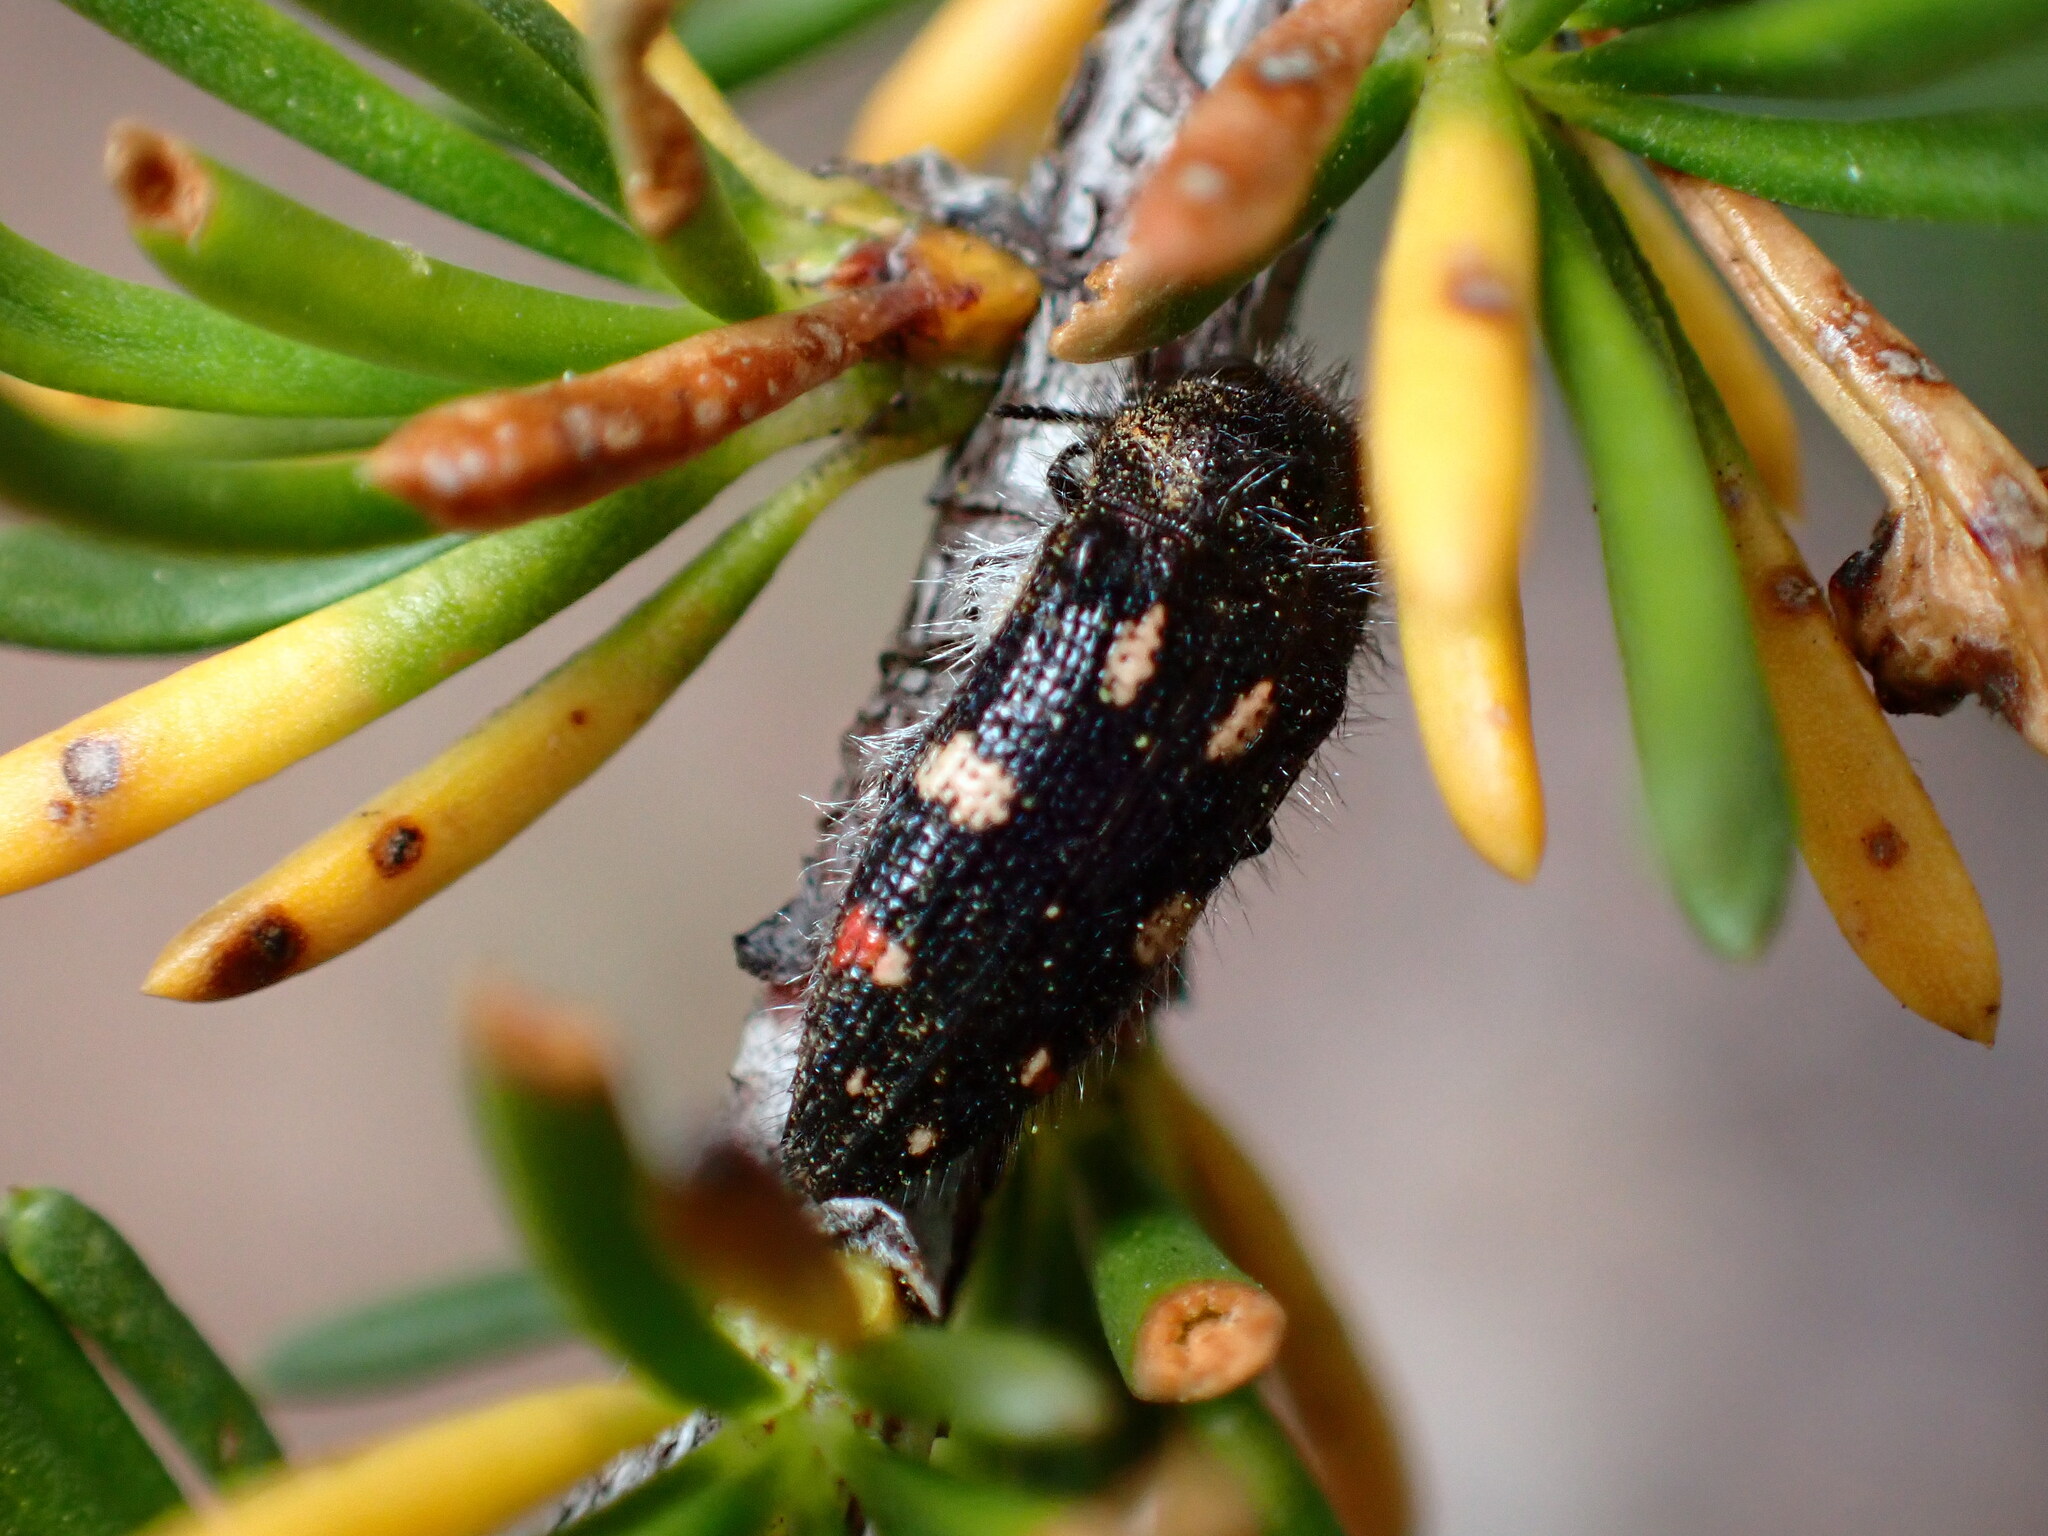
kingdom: Animalia
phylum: Arthropoda
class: Insecta
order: Coleoptera
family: Buprestidae
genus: Acmaeodera
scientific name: Acmaeodera adenostomae
